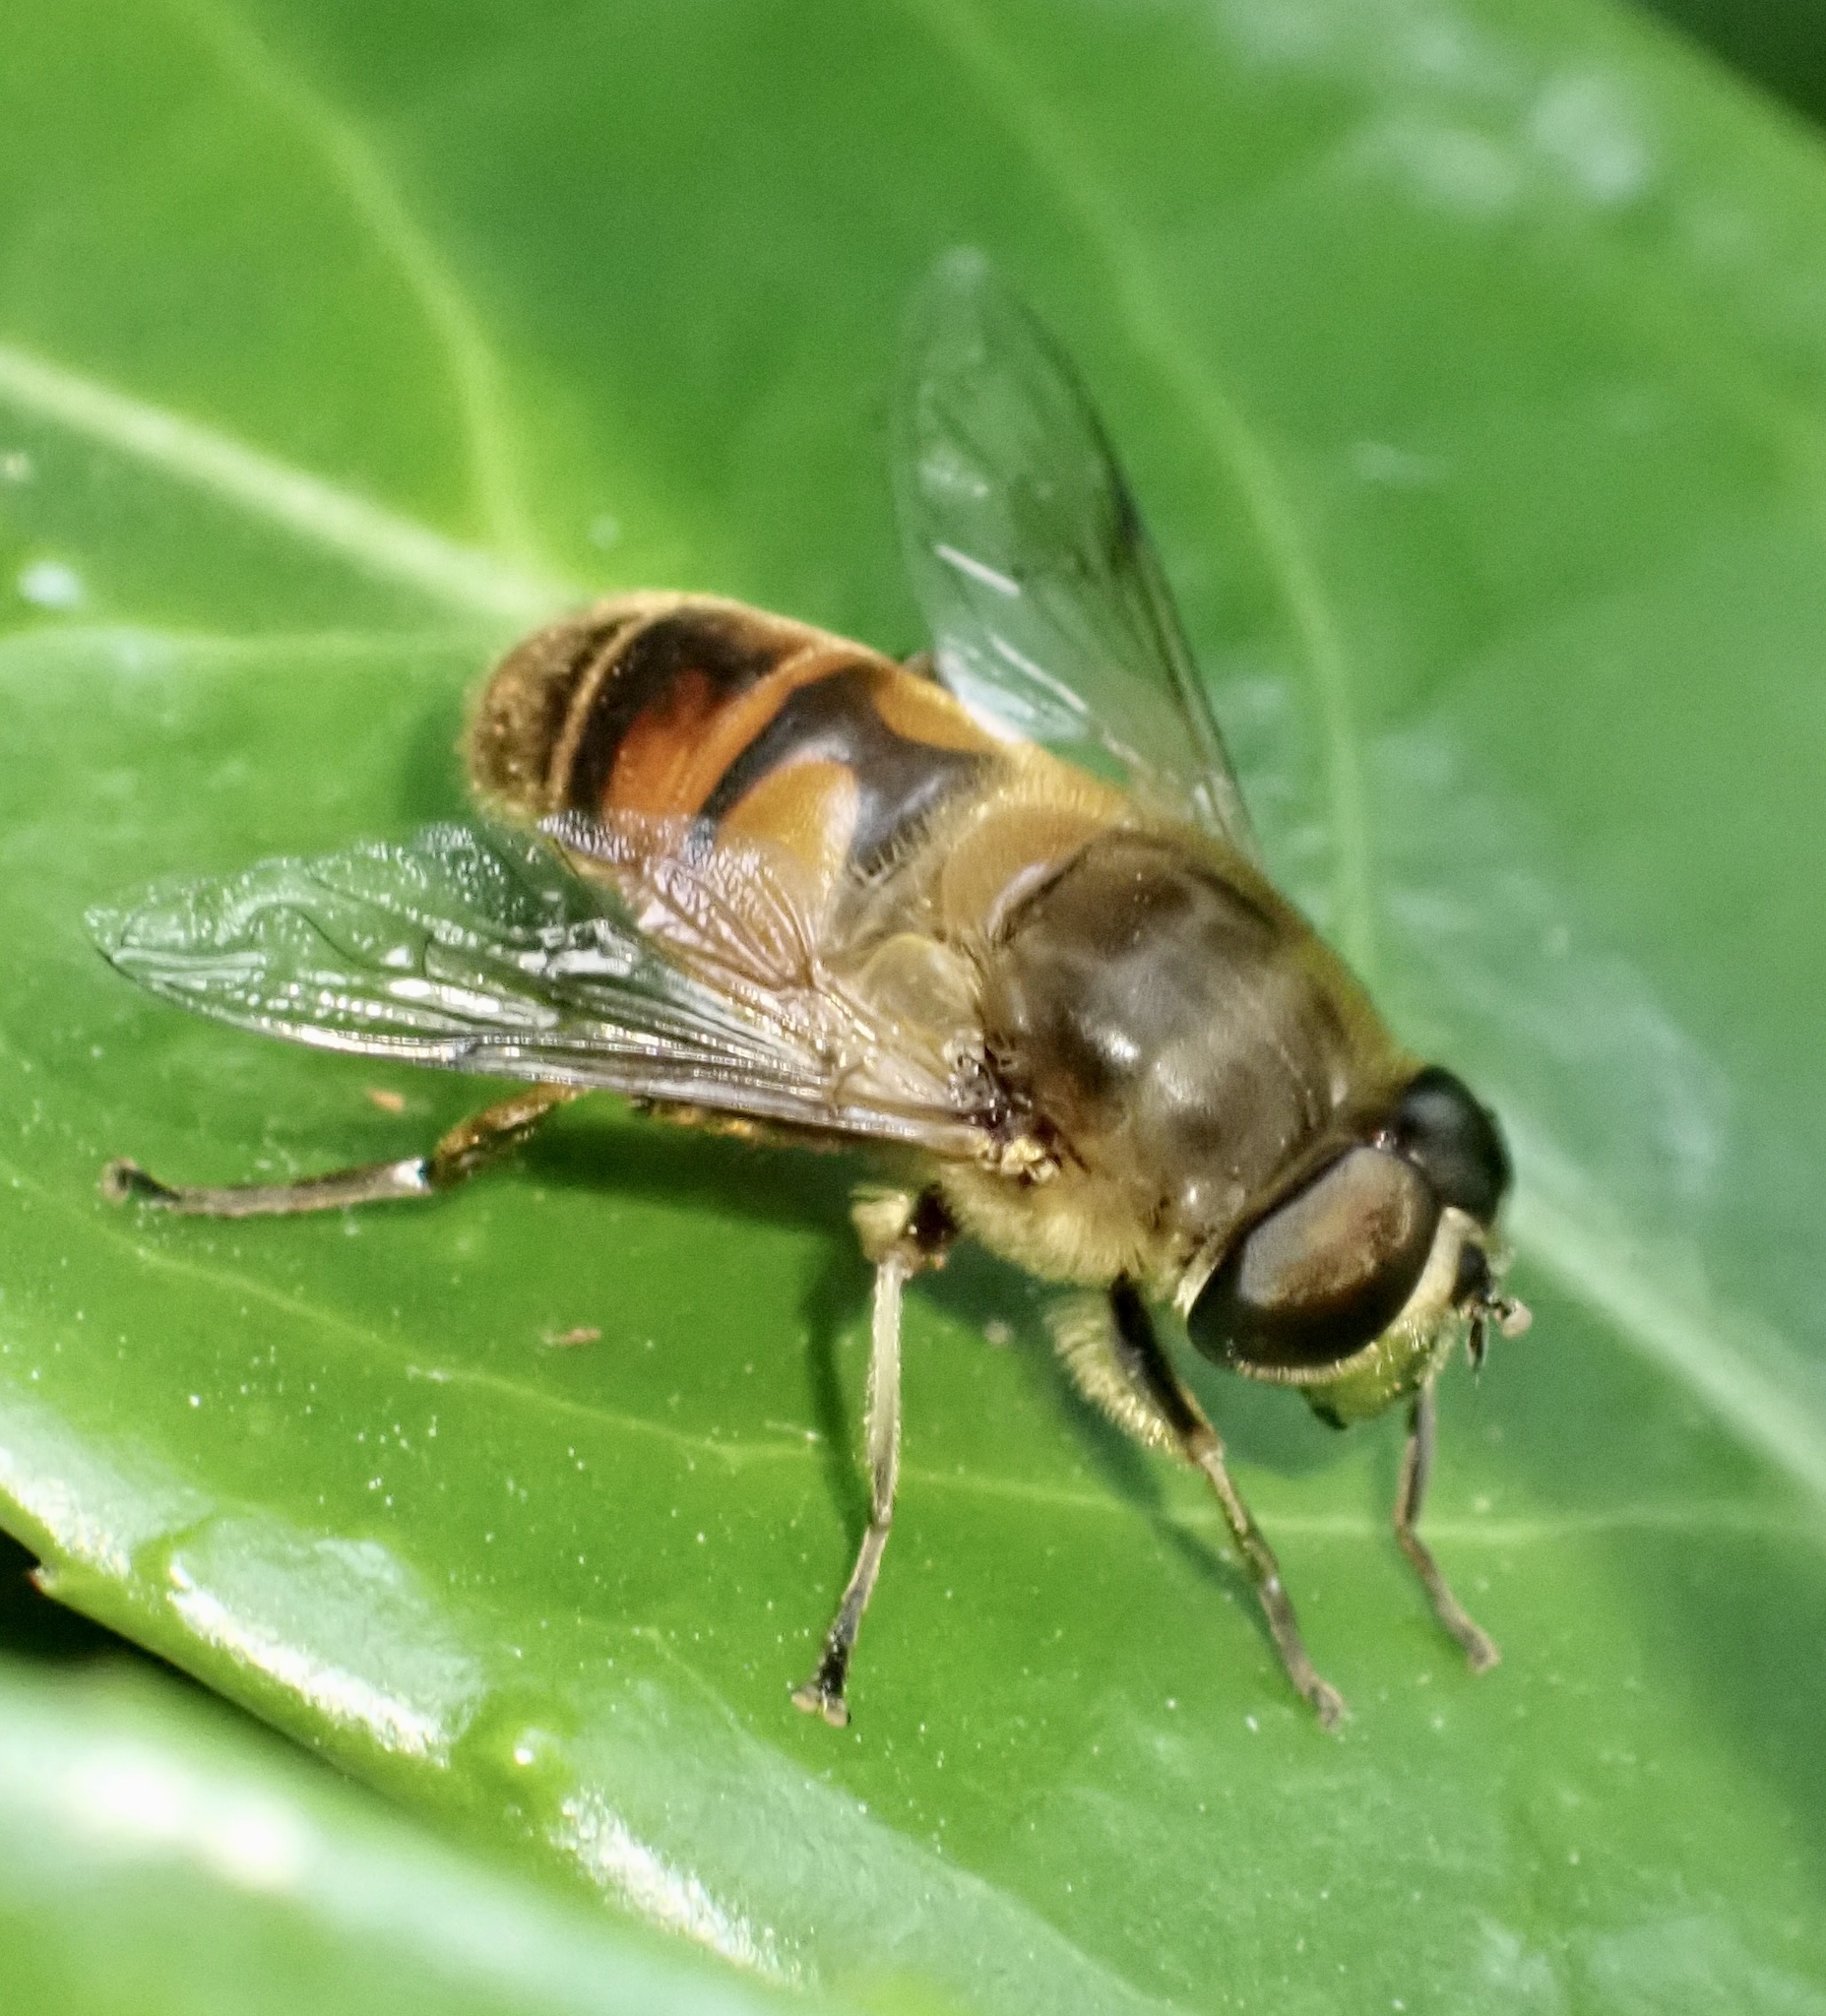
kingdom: Animalia
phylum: Arthropoda
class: Insecta
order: Diptera
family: Syrphidae
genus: Eristalis
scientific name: Eristalis tenax
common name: Drone fly
